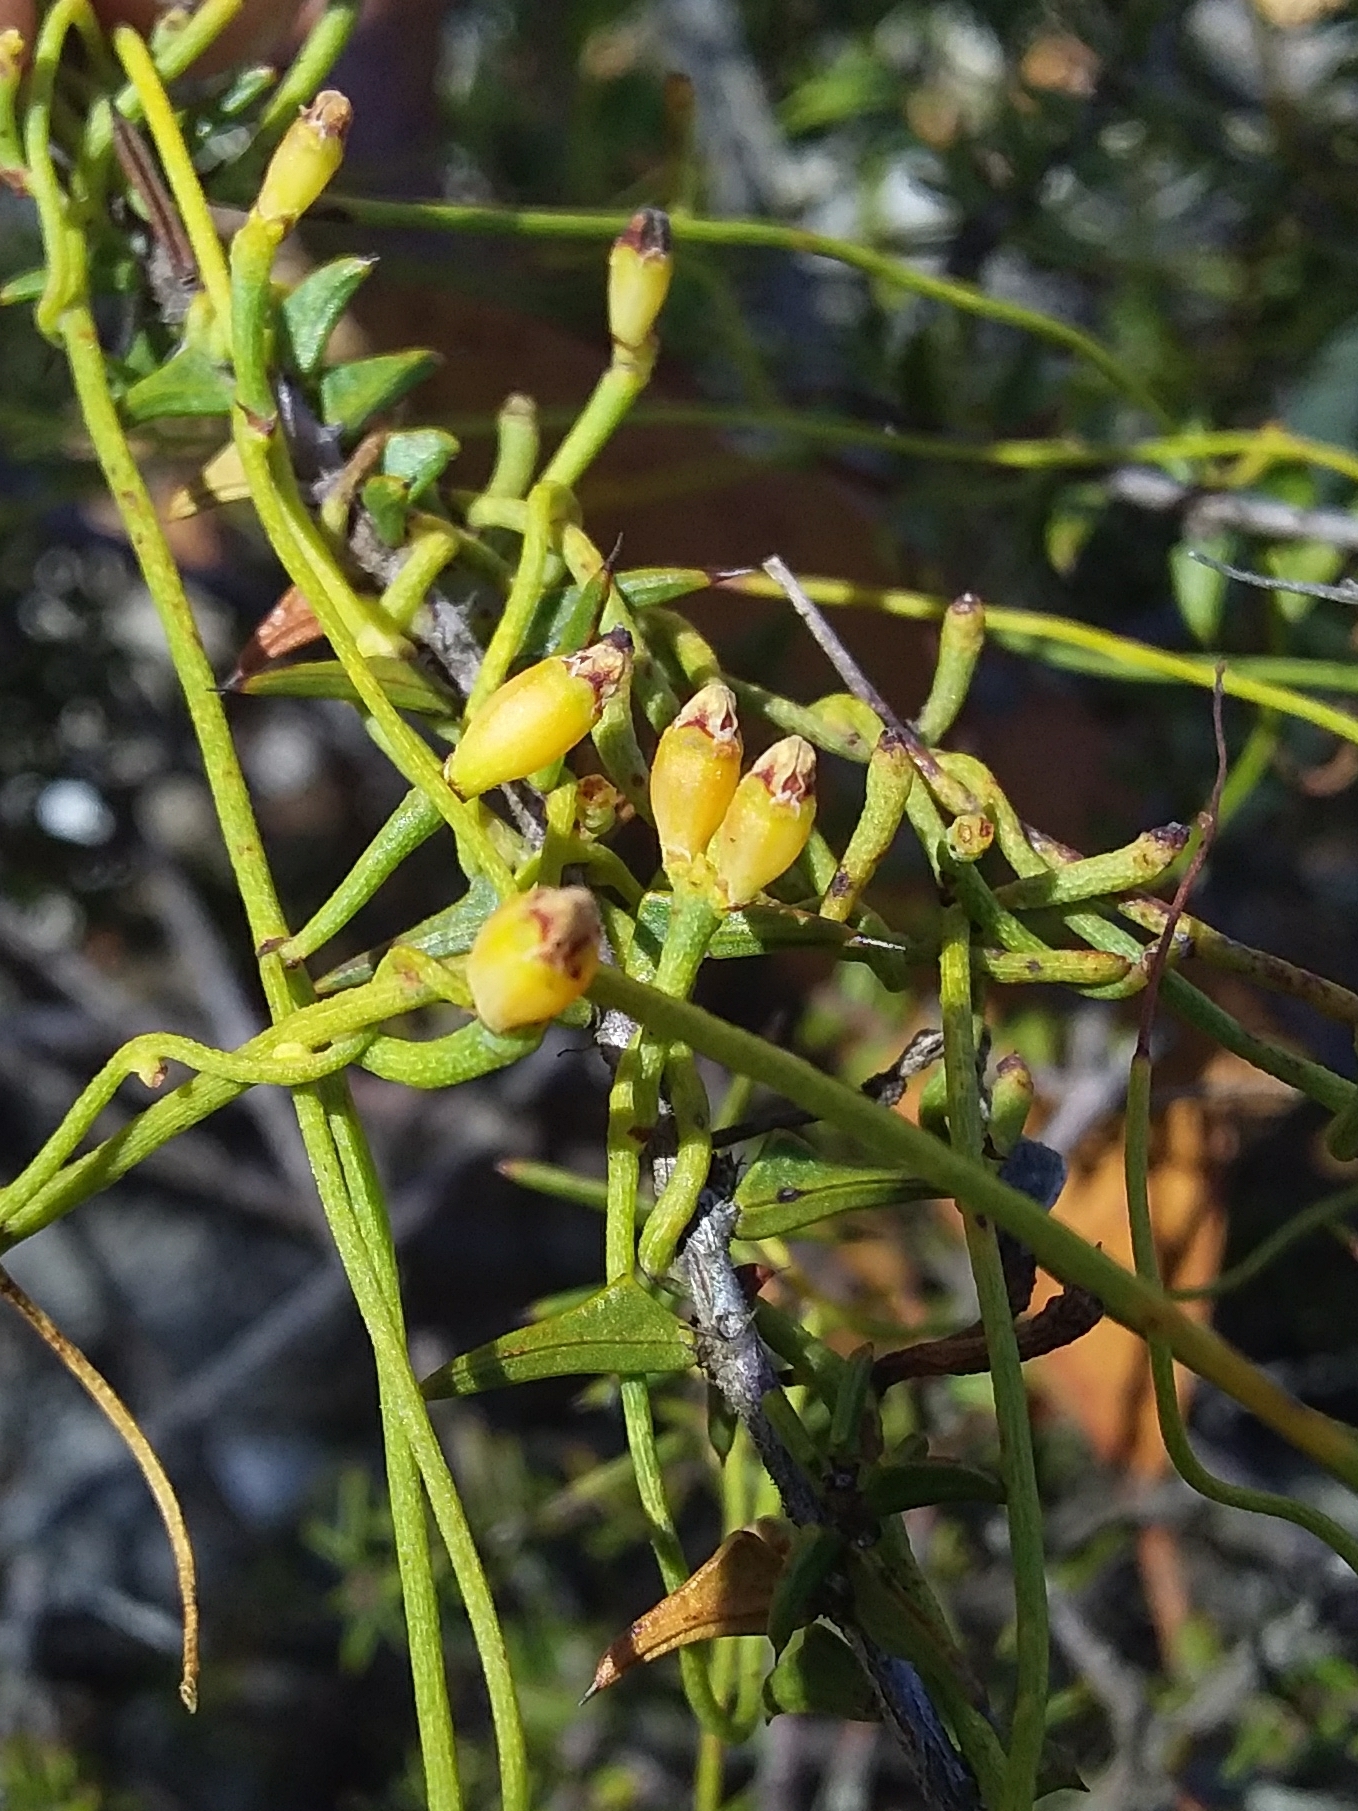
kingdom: Plantae
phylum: Tracheophyta
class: Magnoliopsida
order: Laurales
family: Lauraceae
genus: Cassytha
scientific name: Cassytha glabella
